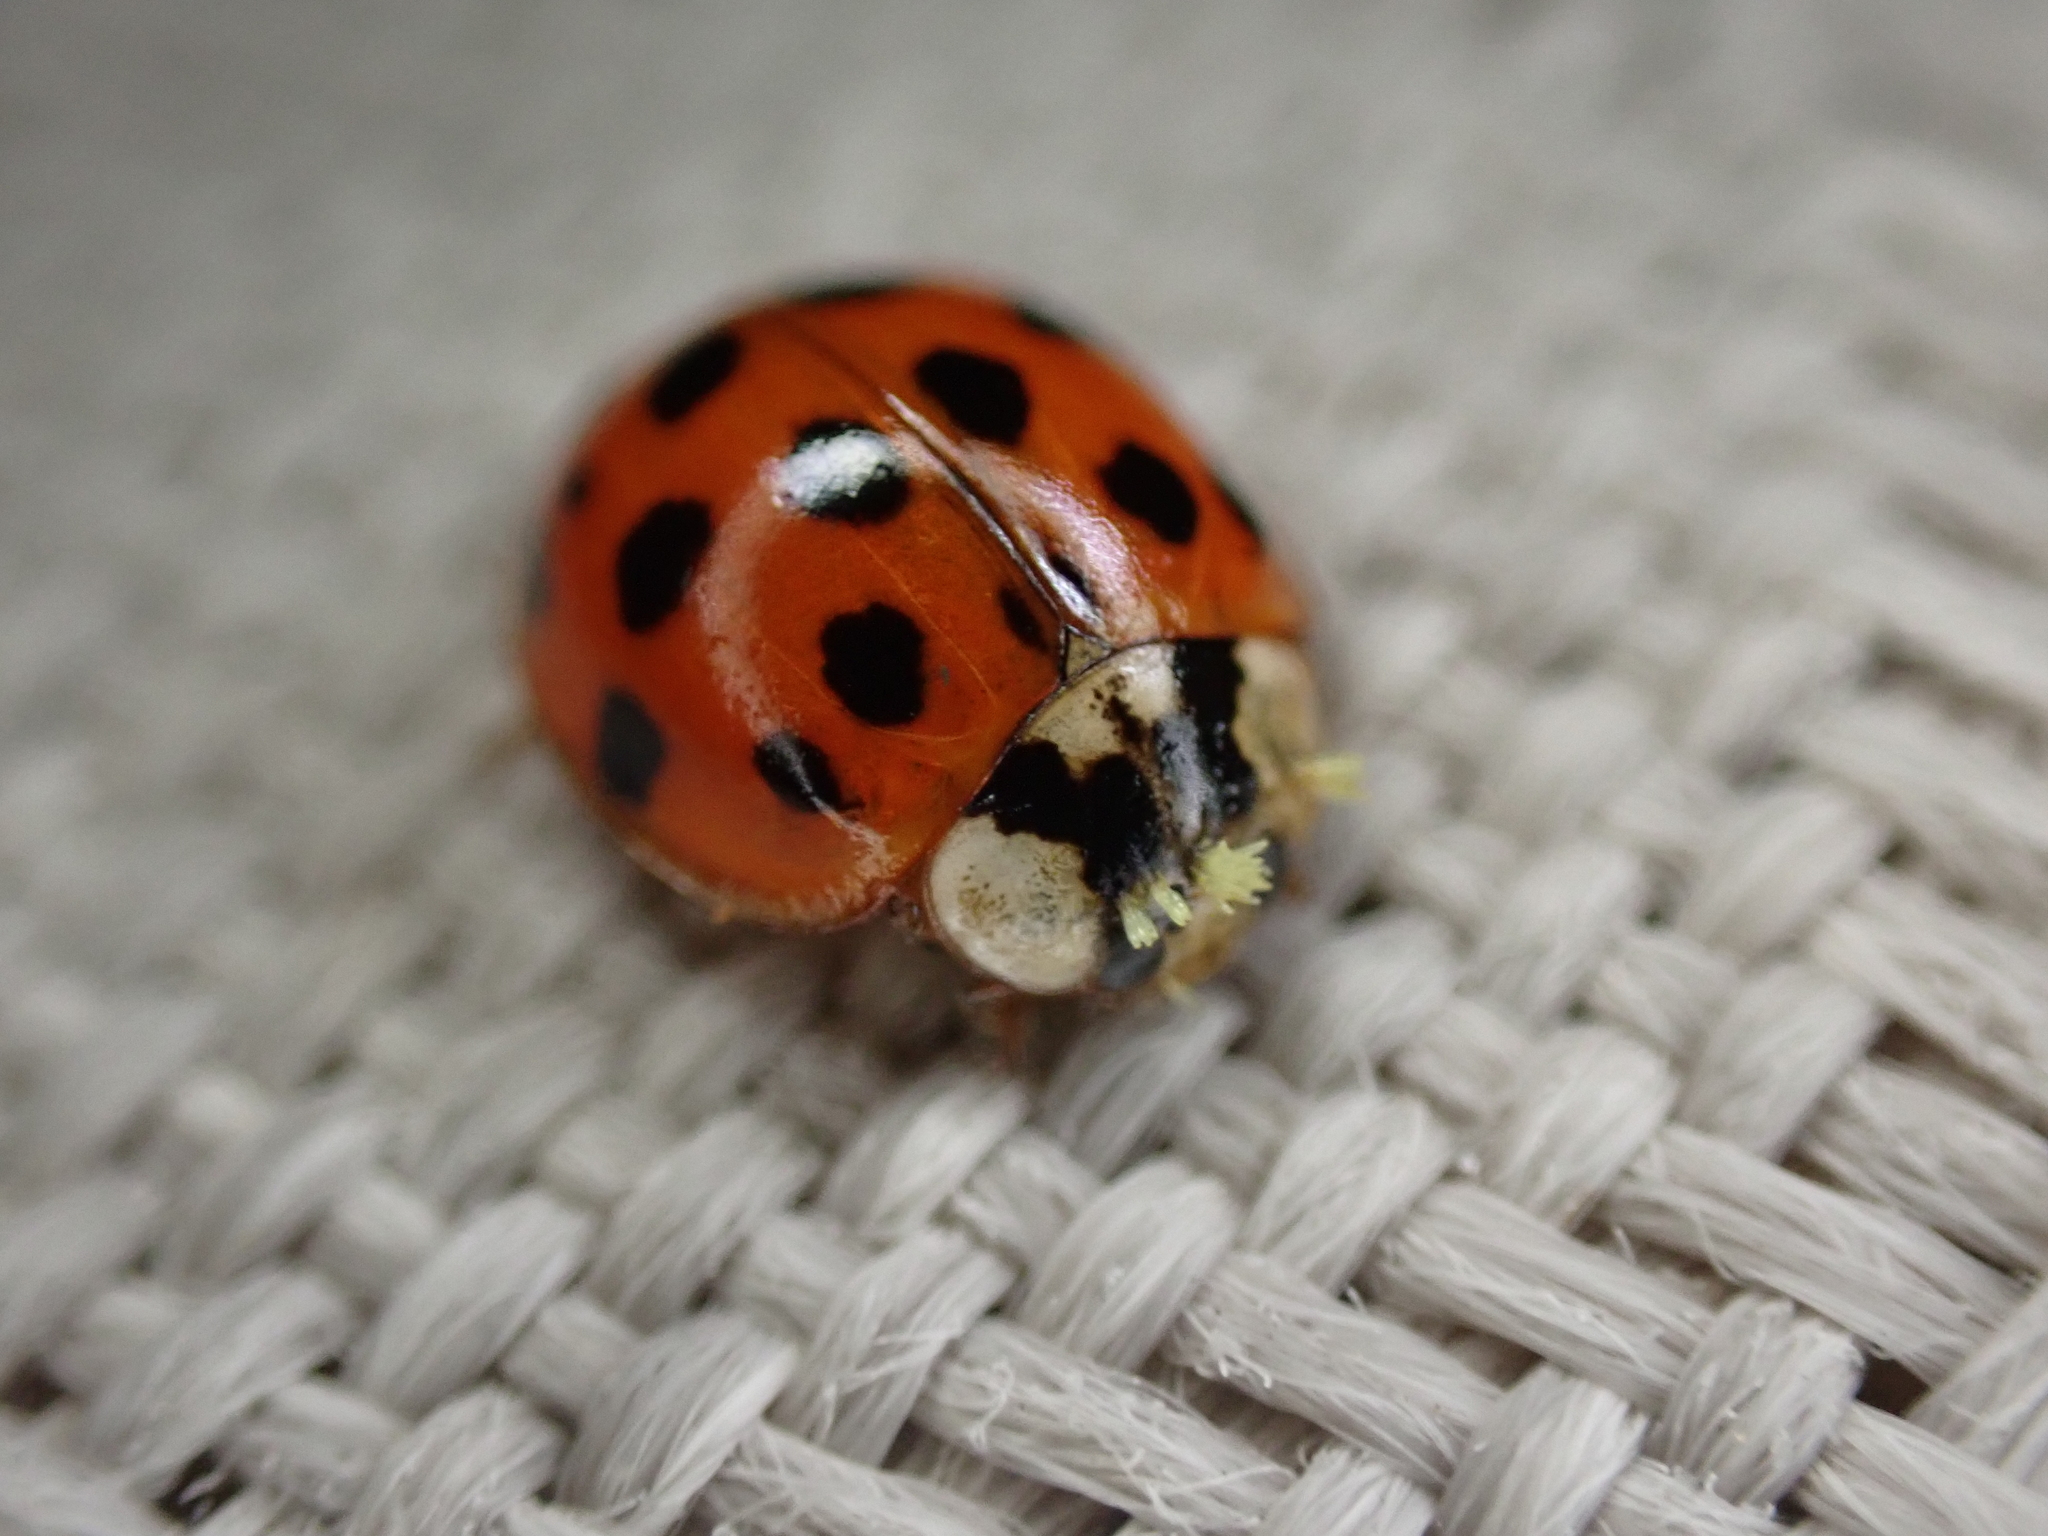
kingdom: Fungi
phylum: Ascomycota
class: Laboulbeniomycetes
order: Laboulbeniales
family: Laboulbeniaceae
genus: Hesperomyces
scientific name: Hesperomyces harmoniae
